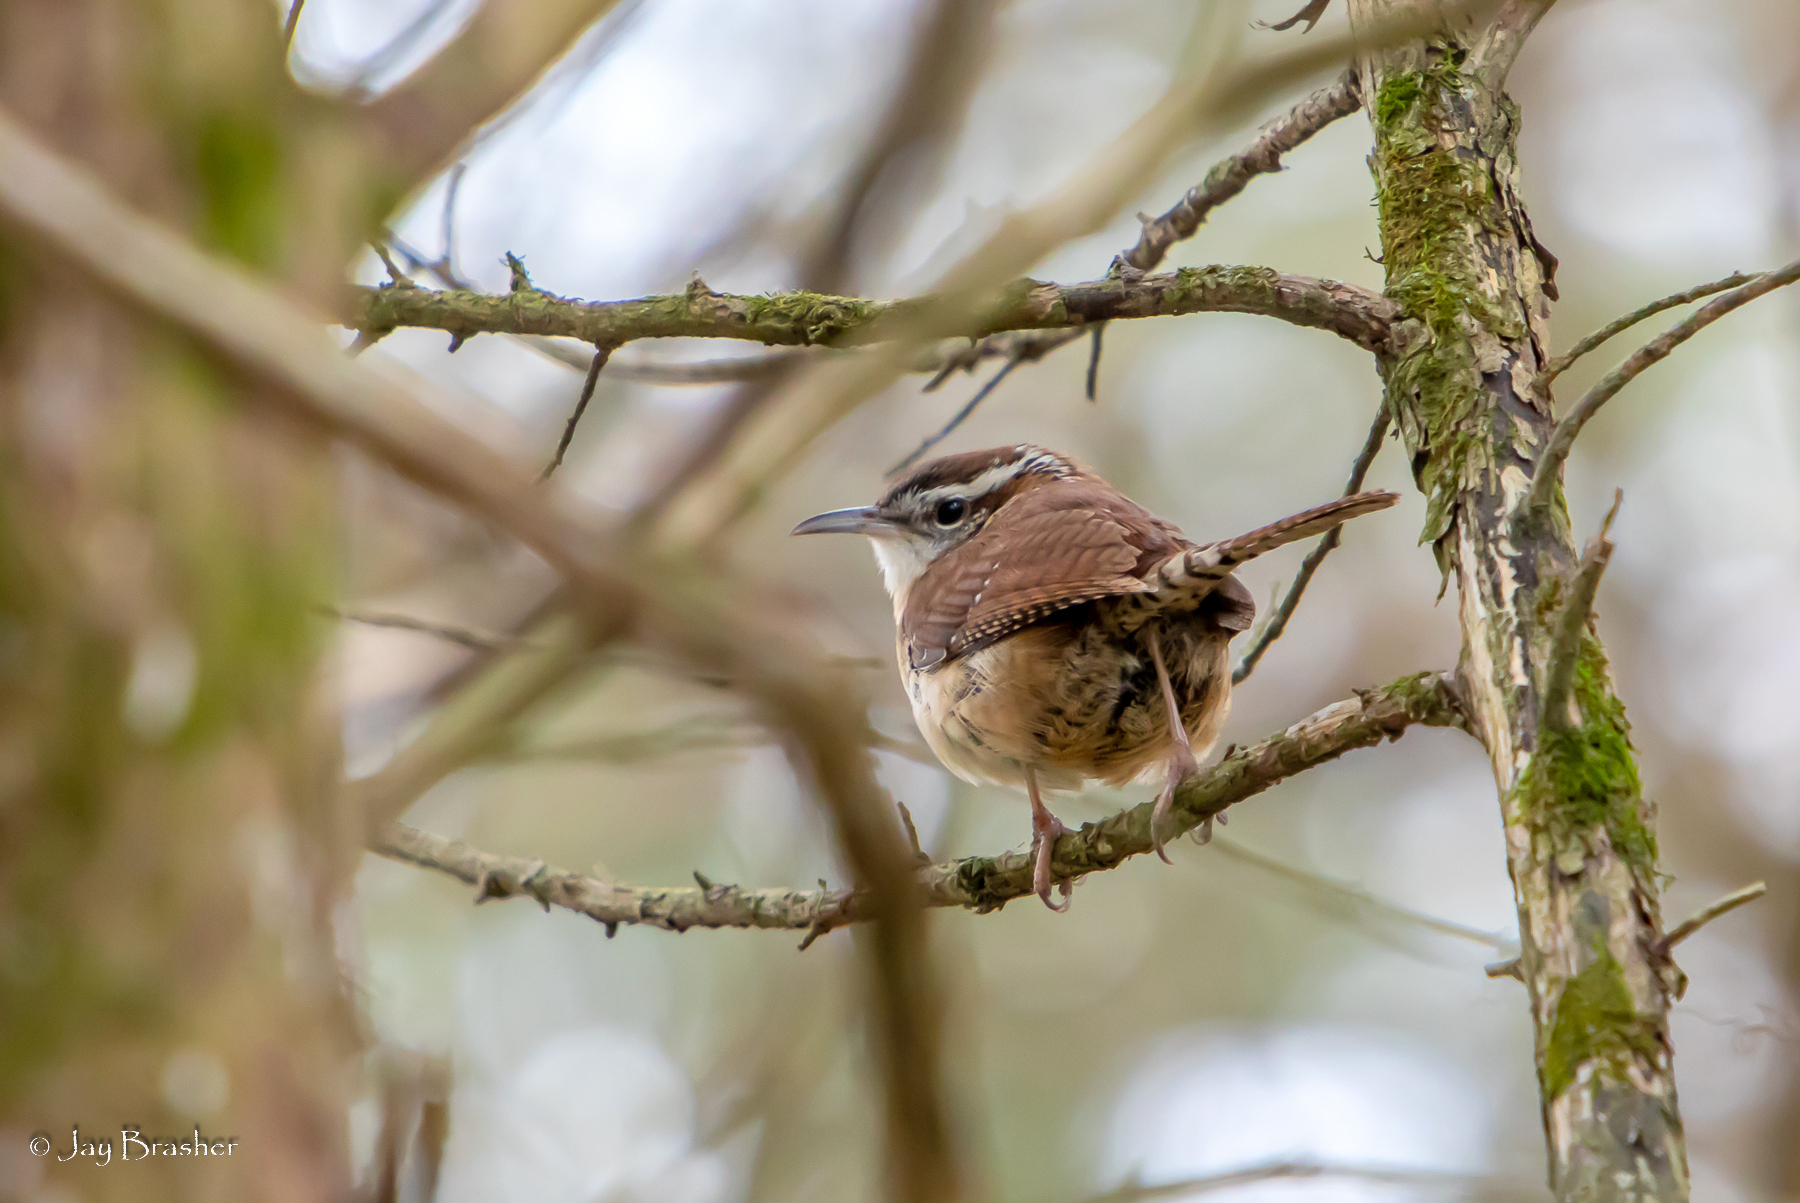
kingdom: Animalia
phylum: Chordata
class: Aves
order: Passeriformes
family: Troglodytidae
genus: Thryothorus
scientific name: Thryothorus ludovicianus
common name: Carolina wren
